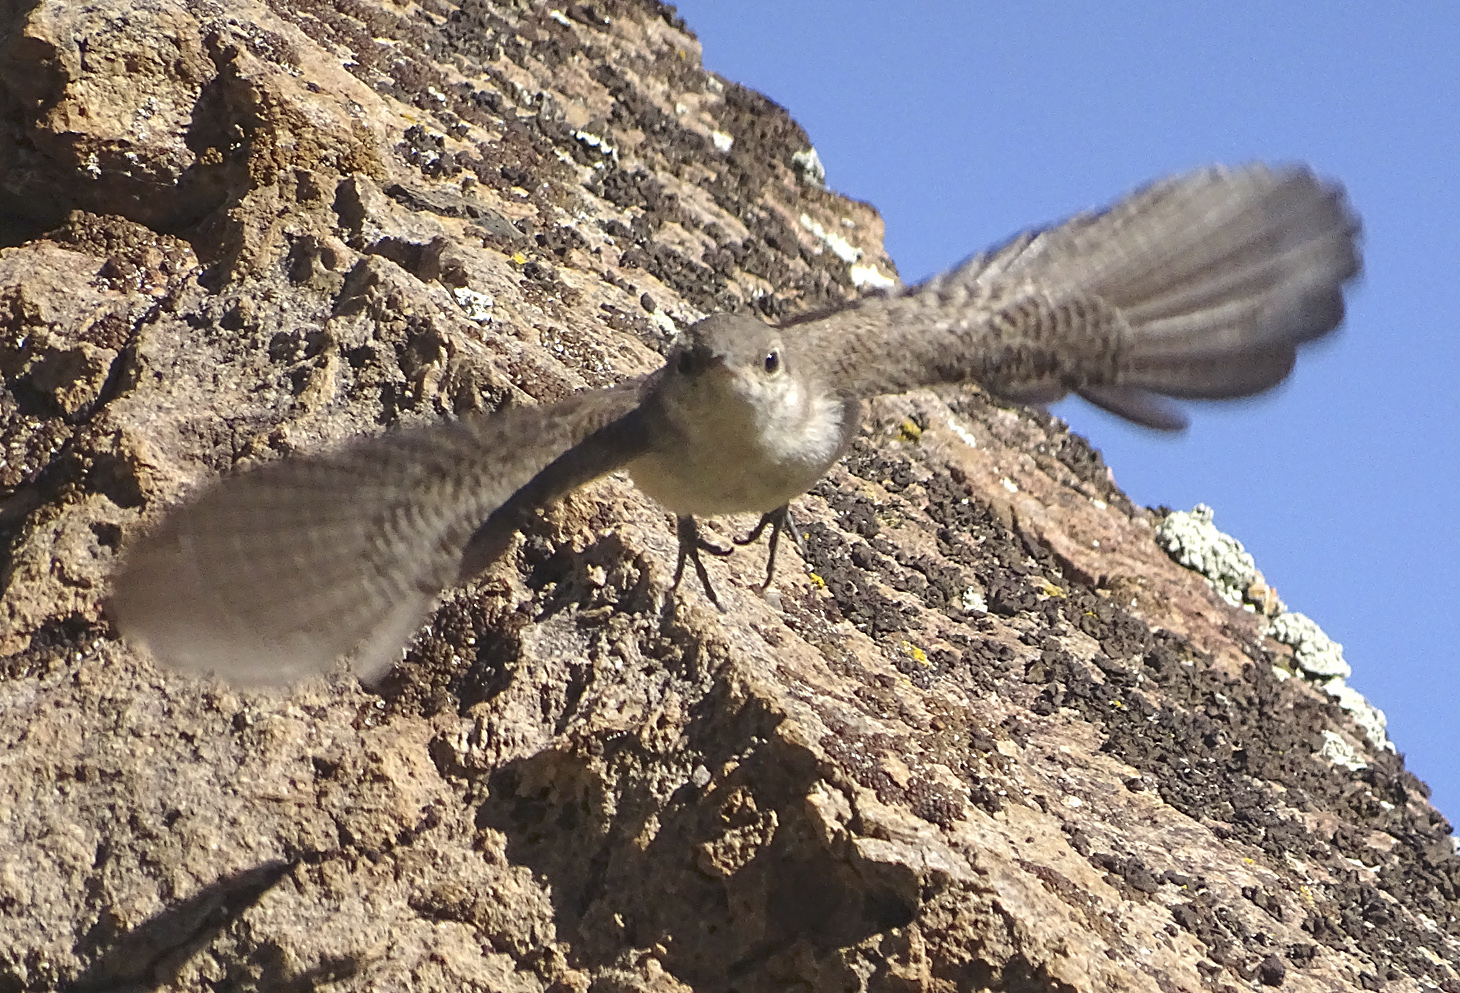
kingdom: Animalia
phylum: Chordata
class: Aves
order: Passeriformes
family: Troglodytidae
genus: Salpinctes
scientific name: Salpinctes obsoletus
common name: Rock wren
